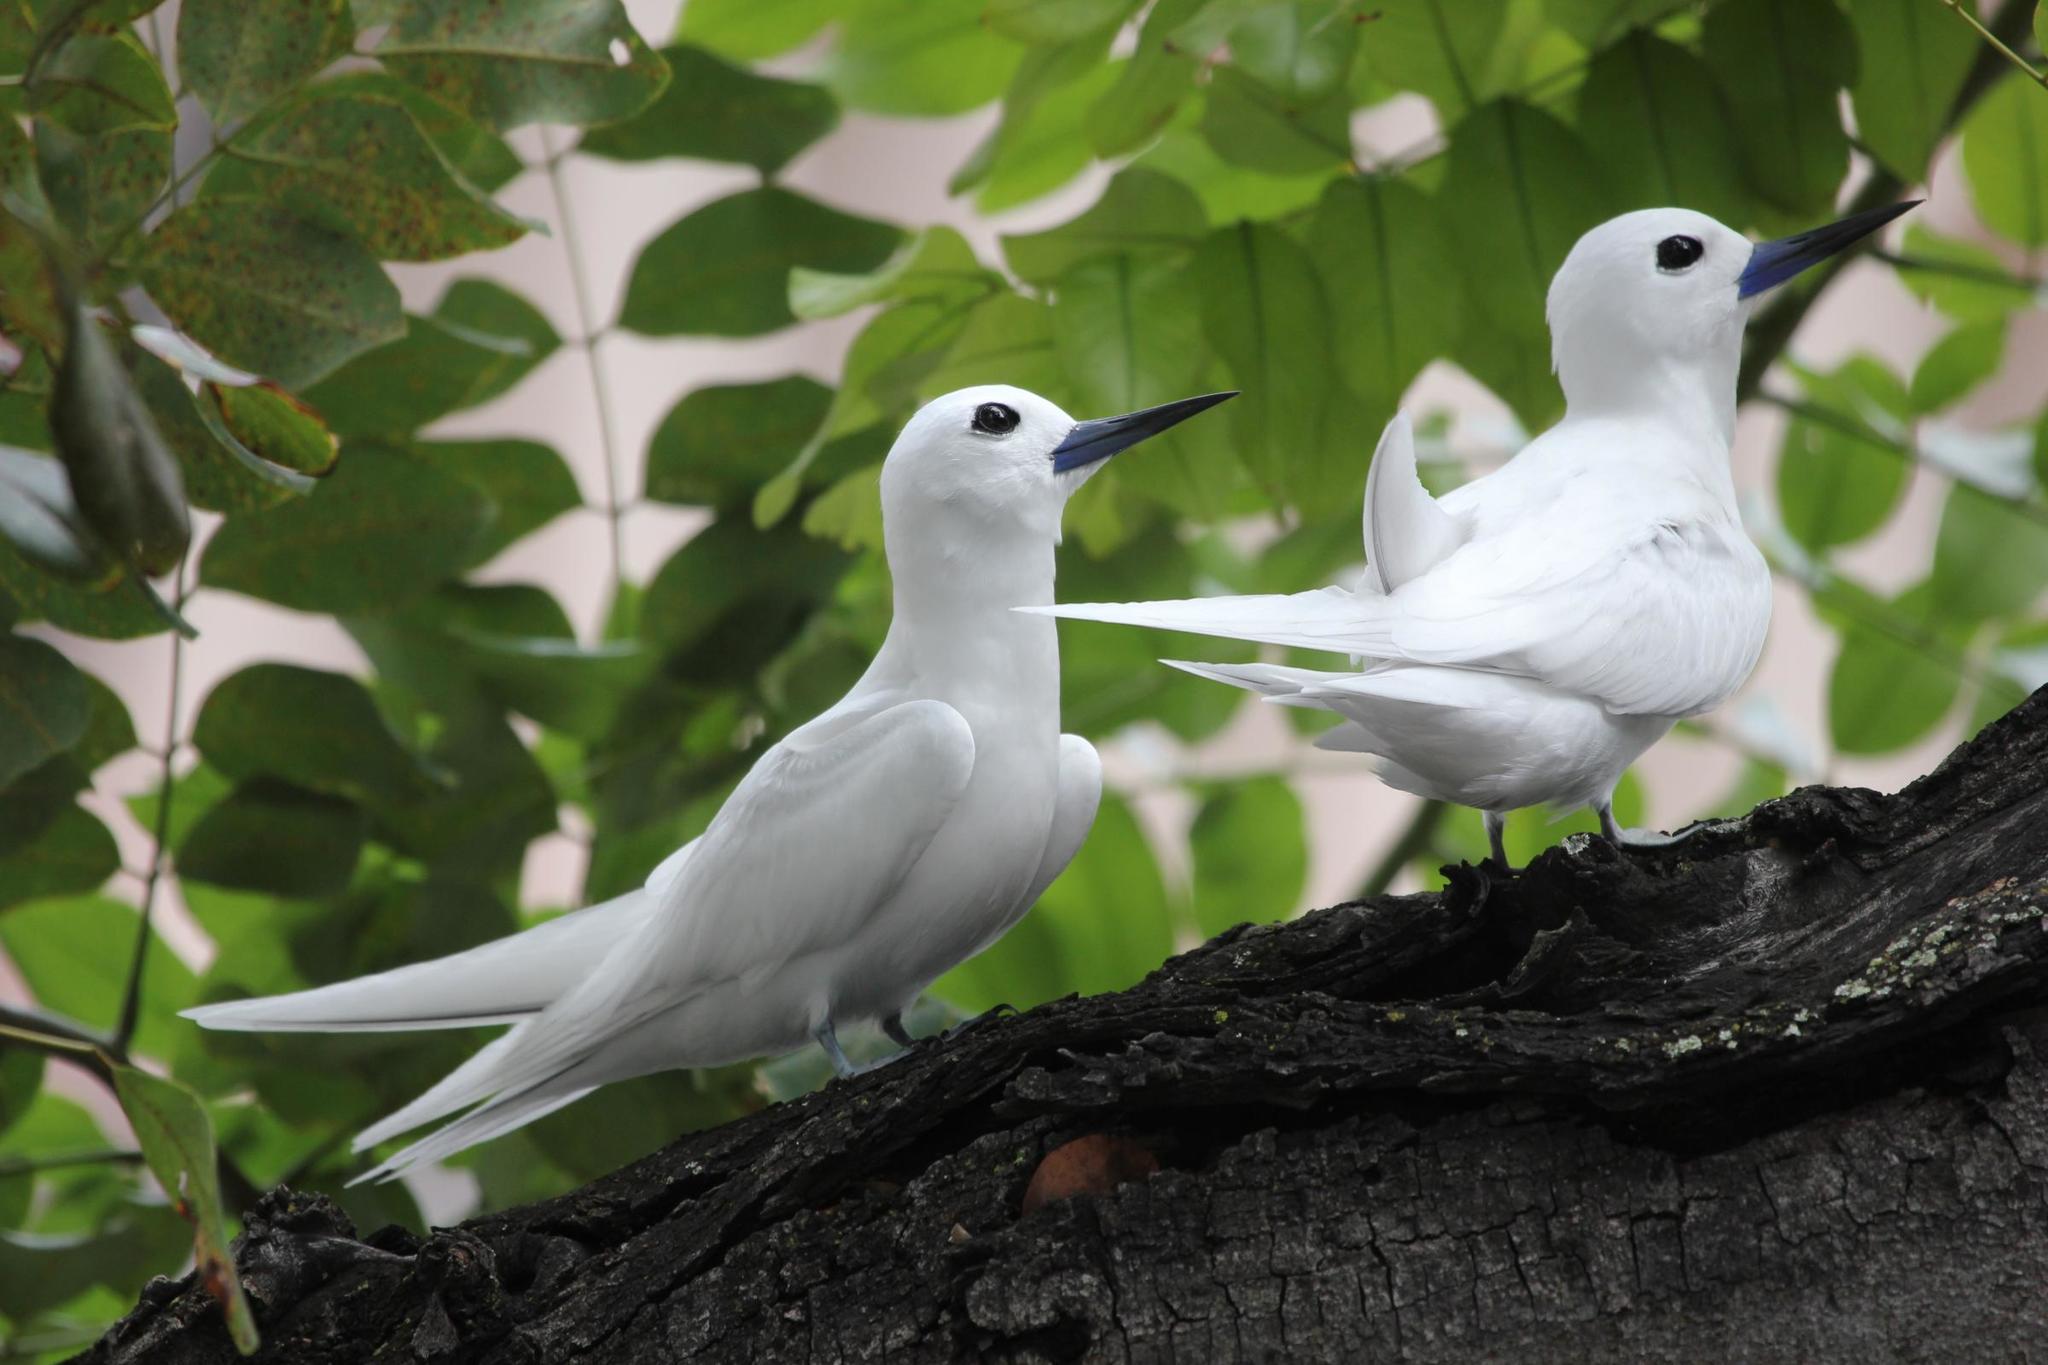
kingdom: Animalia
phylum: Chordata
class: Aves
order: Charadriiformes
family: Laridae
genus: Gygis
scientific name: Gygis alba
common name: White tern
